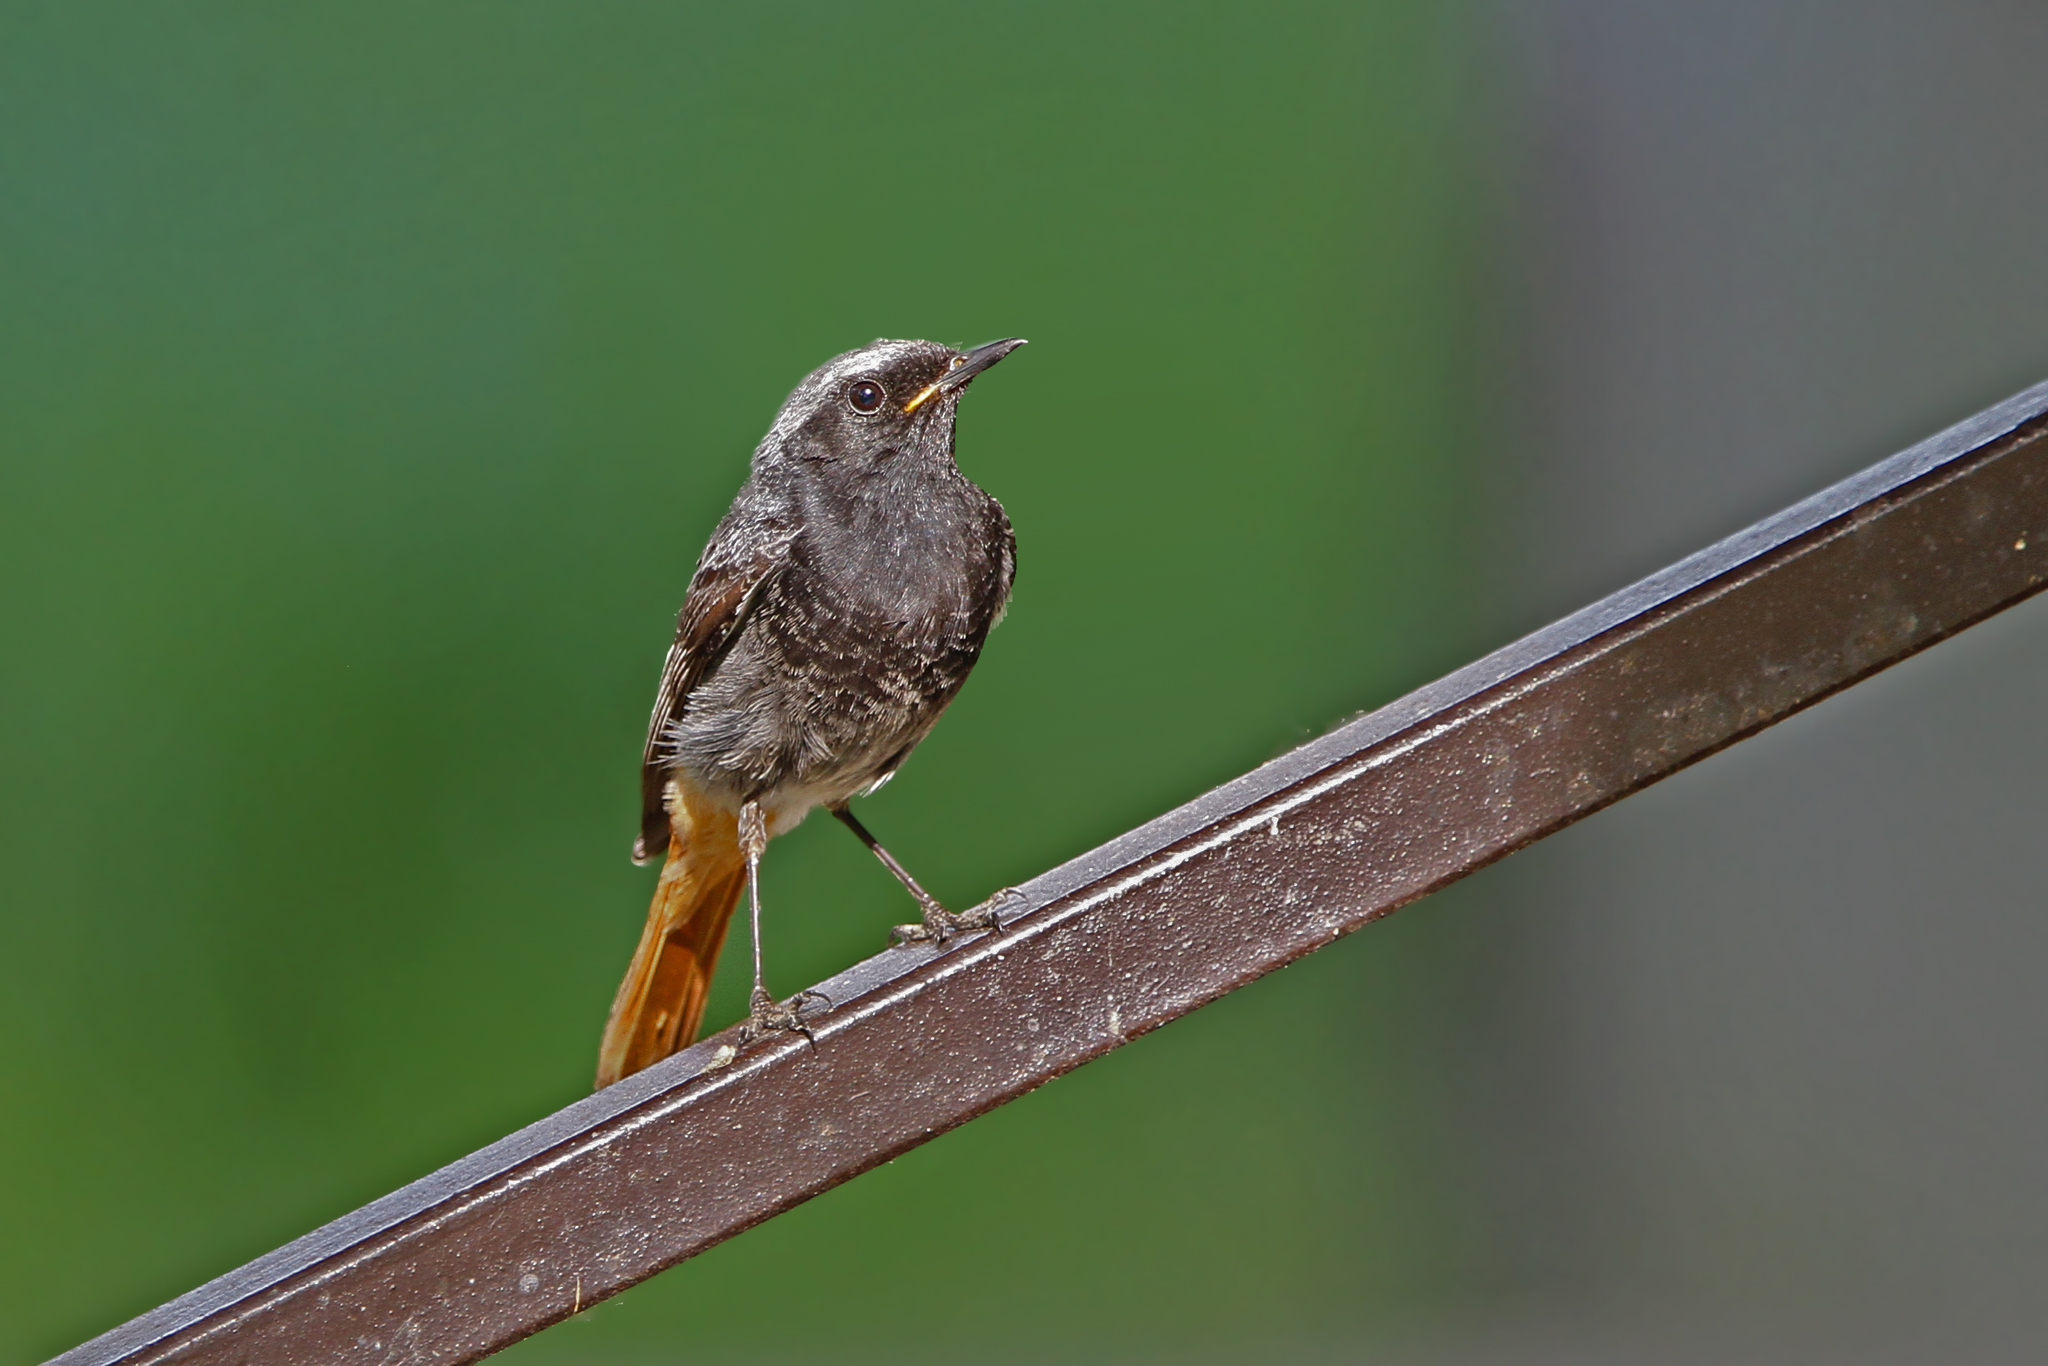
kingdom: Animalia
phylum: Chordata
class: Aves
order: Passeriformes
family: Muscicapidae
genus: Phoenicurus
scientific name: Phoenicurus ochruros
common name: Black redstart
